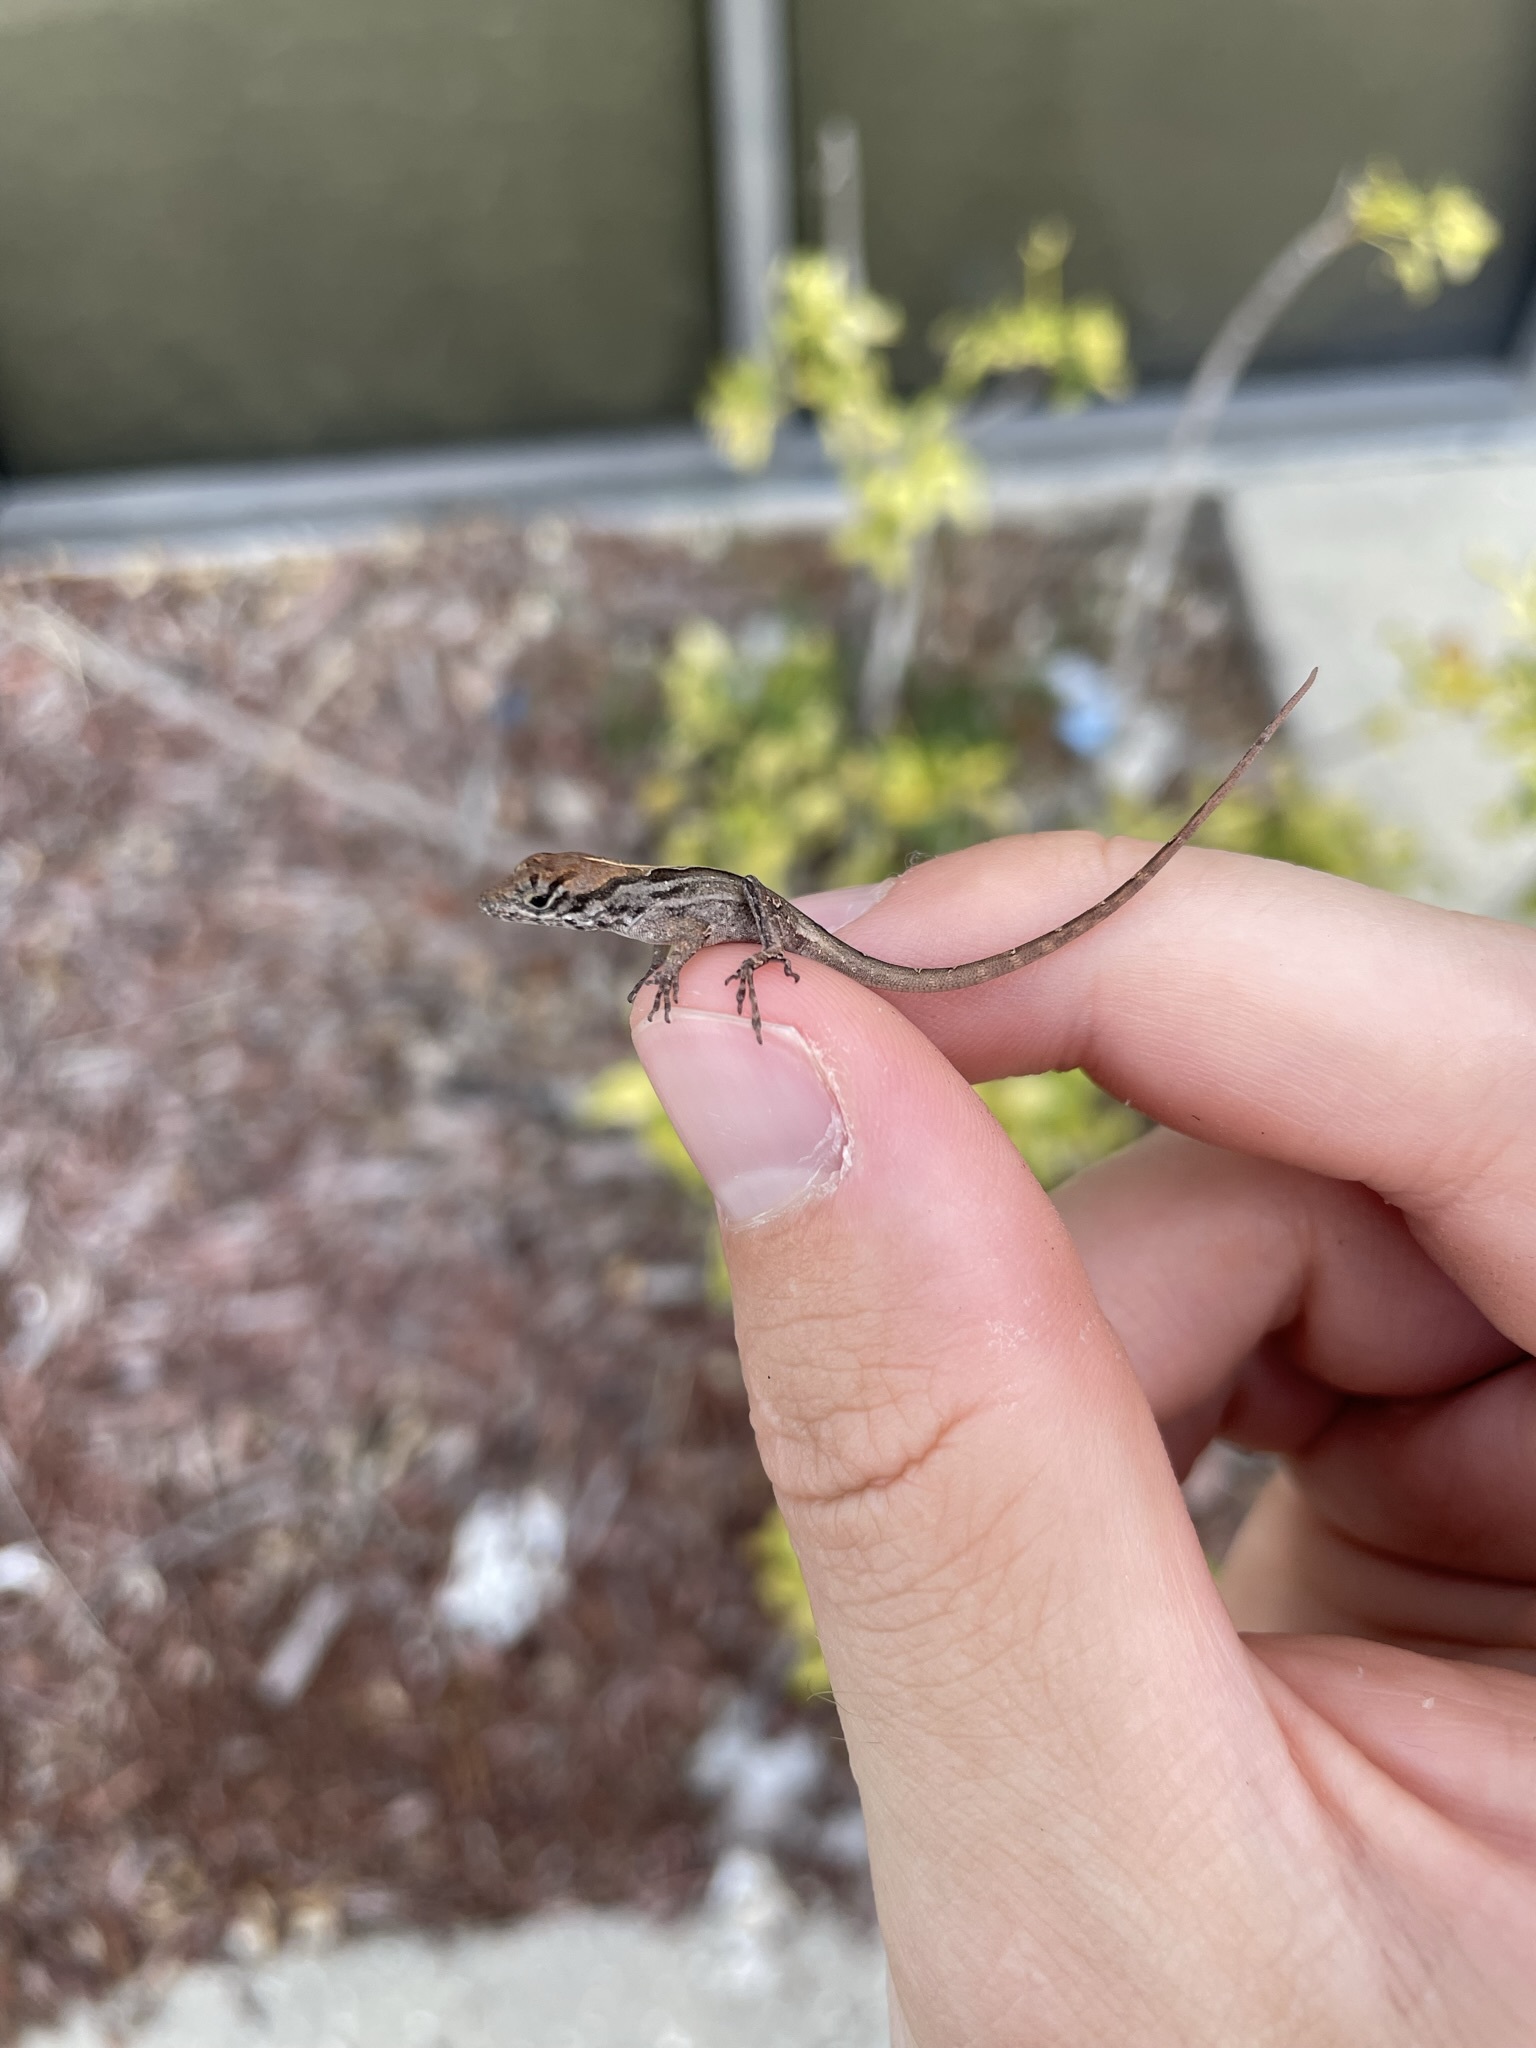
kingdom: Animalia
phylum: Chordata
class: Squamata
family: Dactyloidae
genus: Anolis
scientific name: Anolis sagrei
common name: Brown anole
